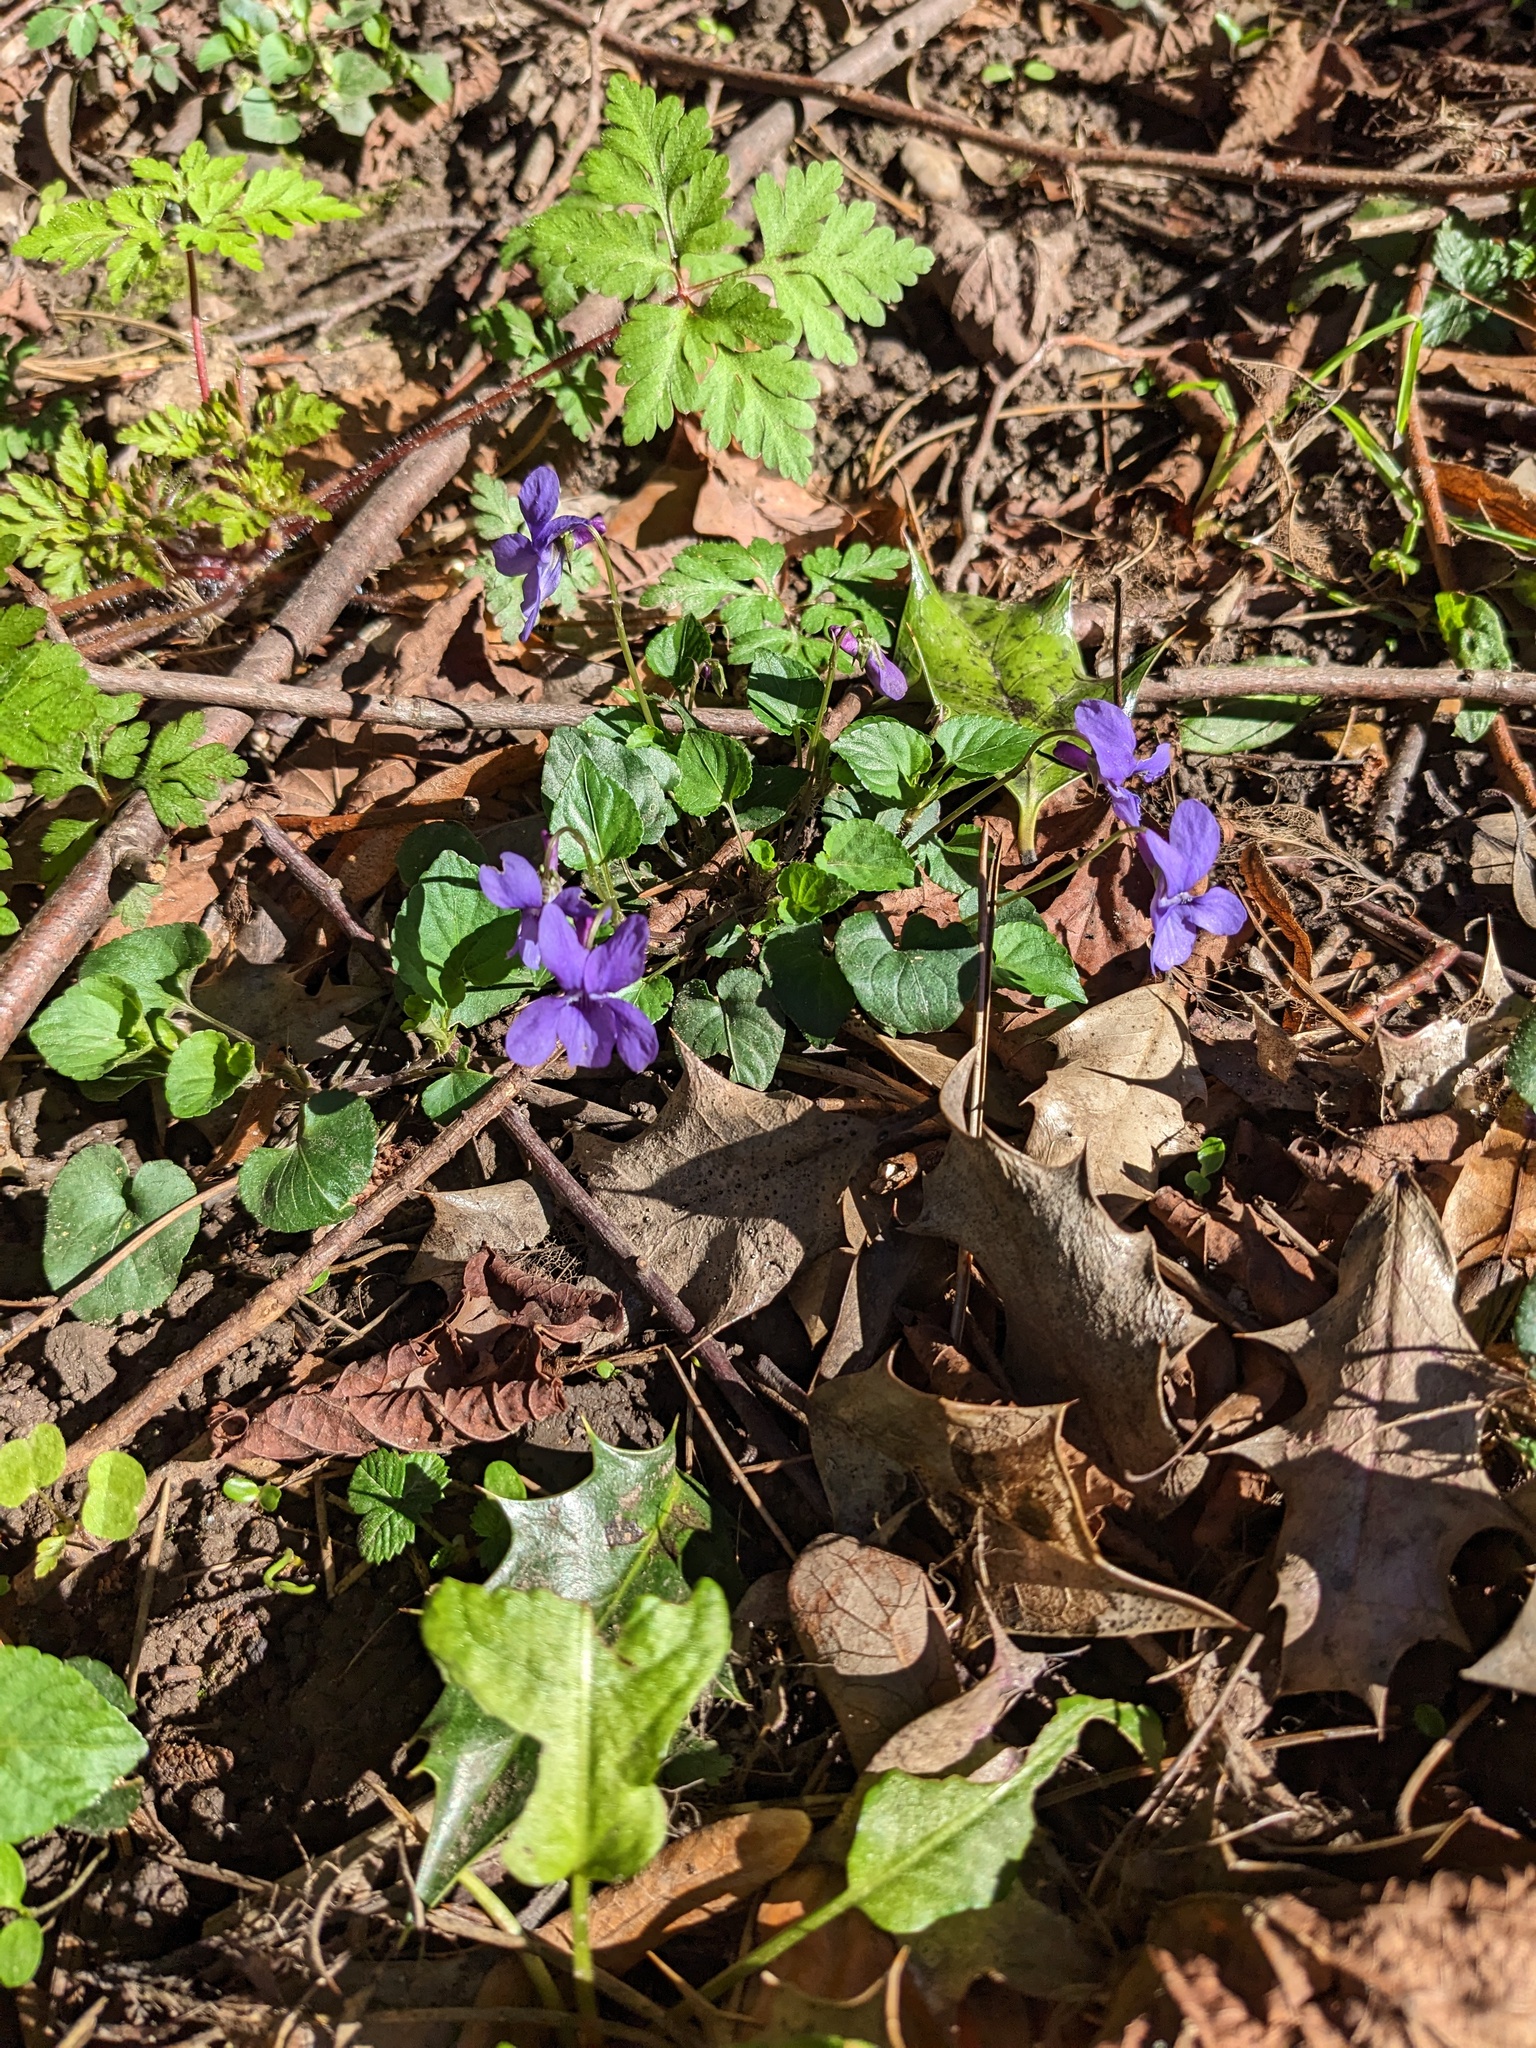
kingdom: Plantae
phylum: Tracheophyta
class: Magnoliopsida
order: Malpighiales
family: Violaceae
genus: Viola
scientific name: Viola reichenbachiana
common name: Early dog-violet
